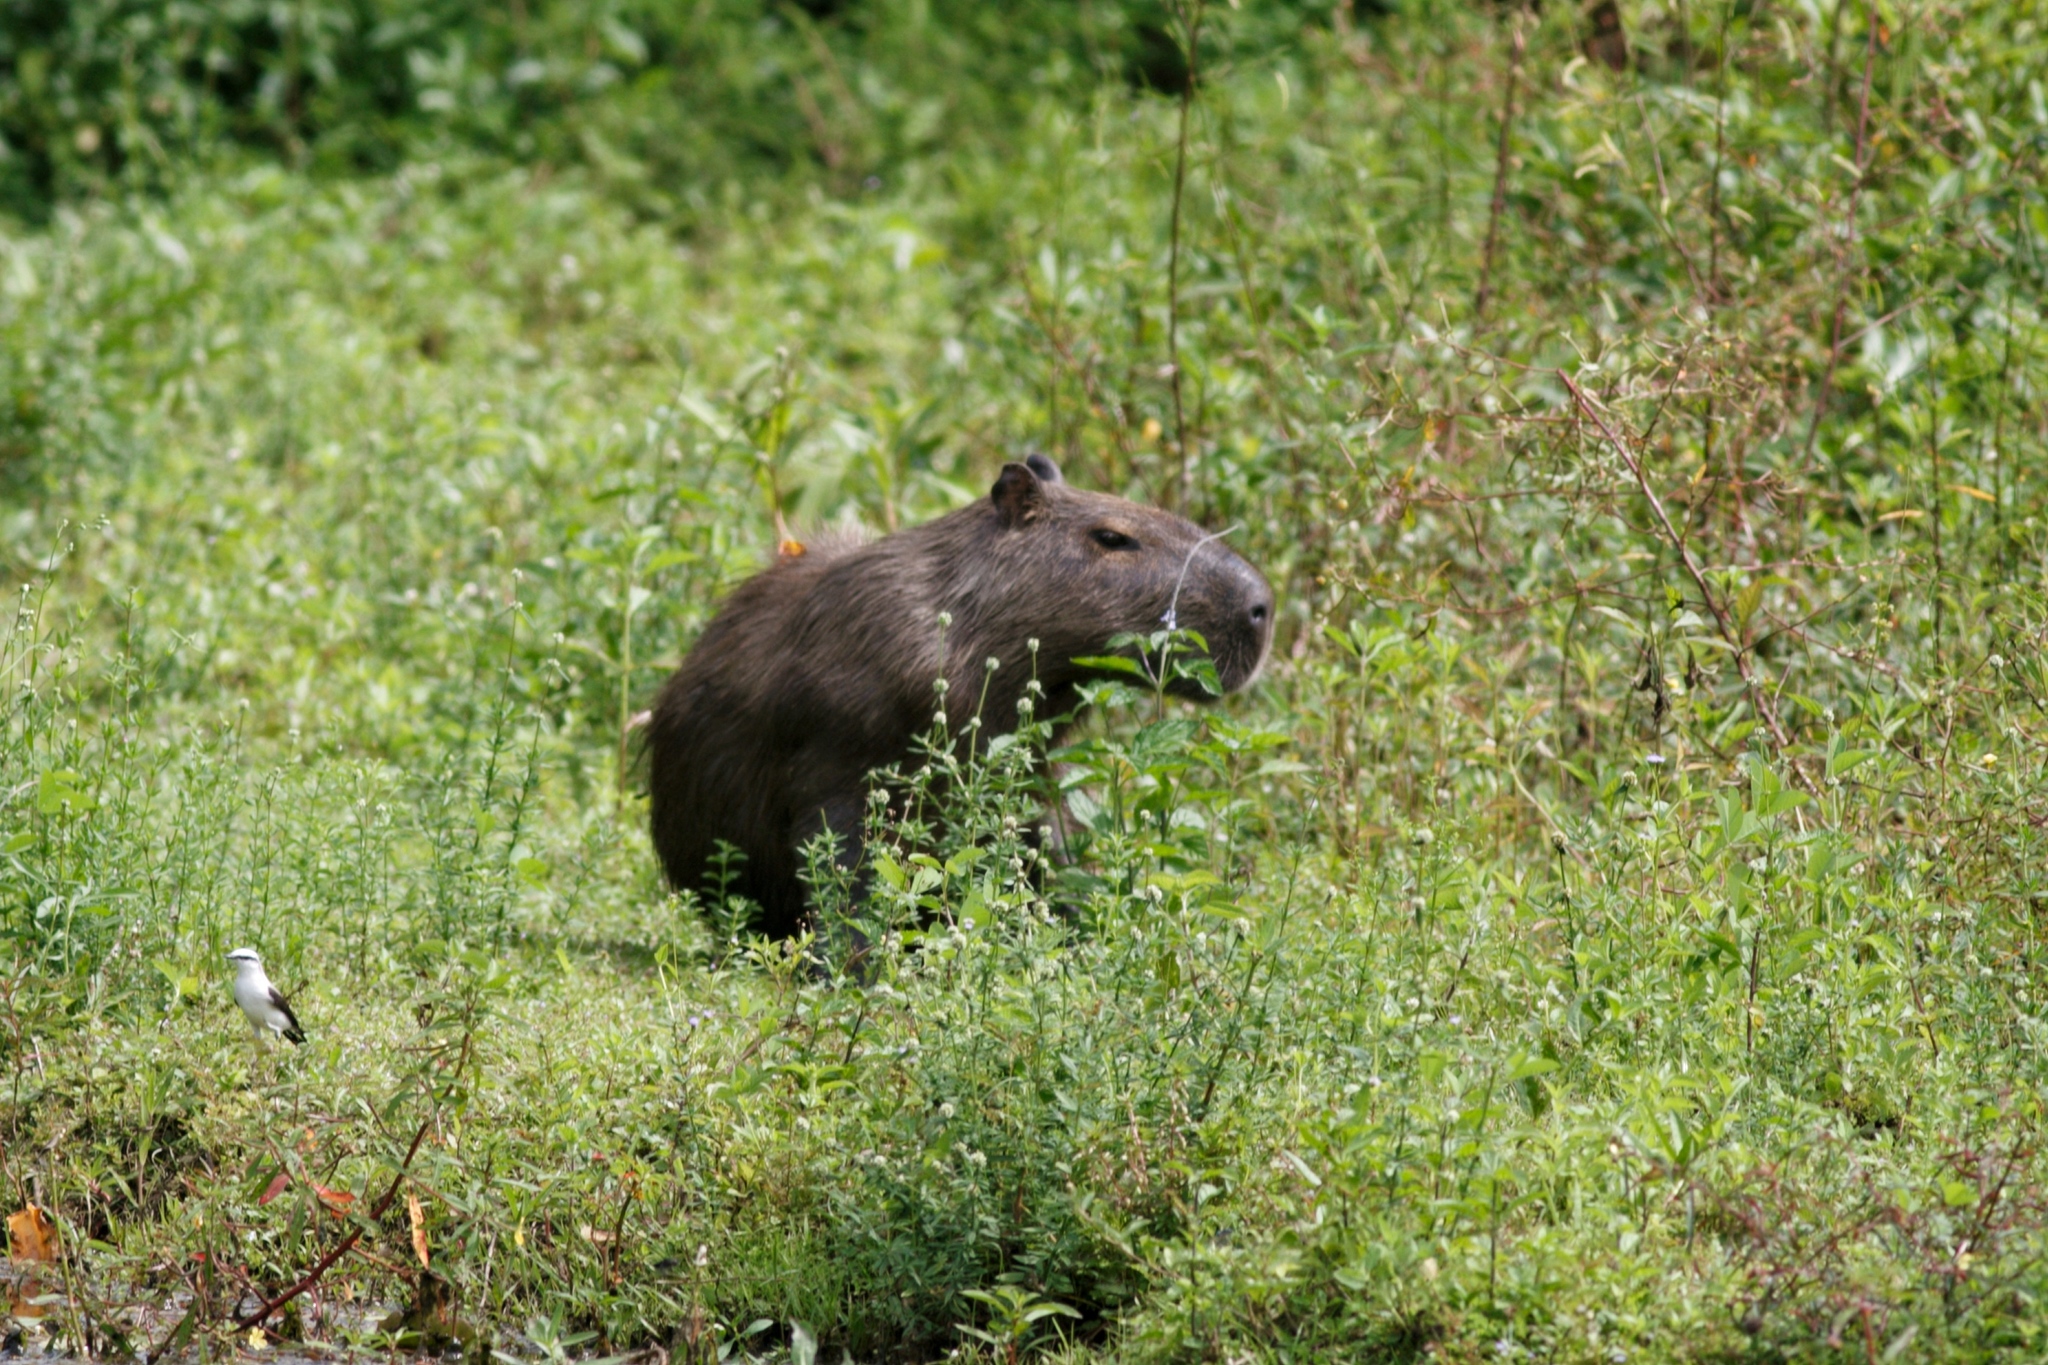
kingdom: Animalia
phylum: Chordata
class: Mammalia
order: Rodentia
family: Caviidae
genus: Hydrochoerus
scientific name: Hydrochoerus hydrochaeris
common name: Capybara
